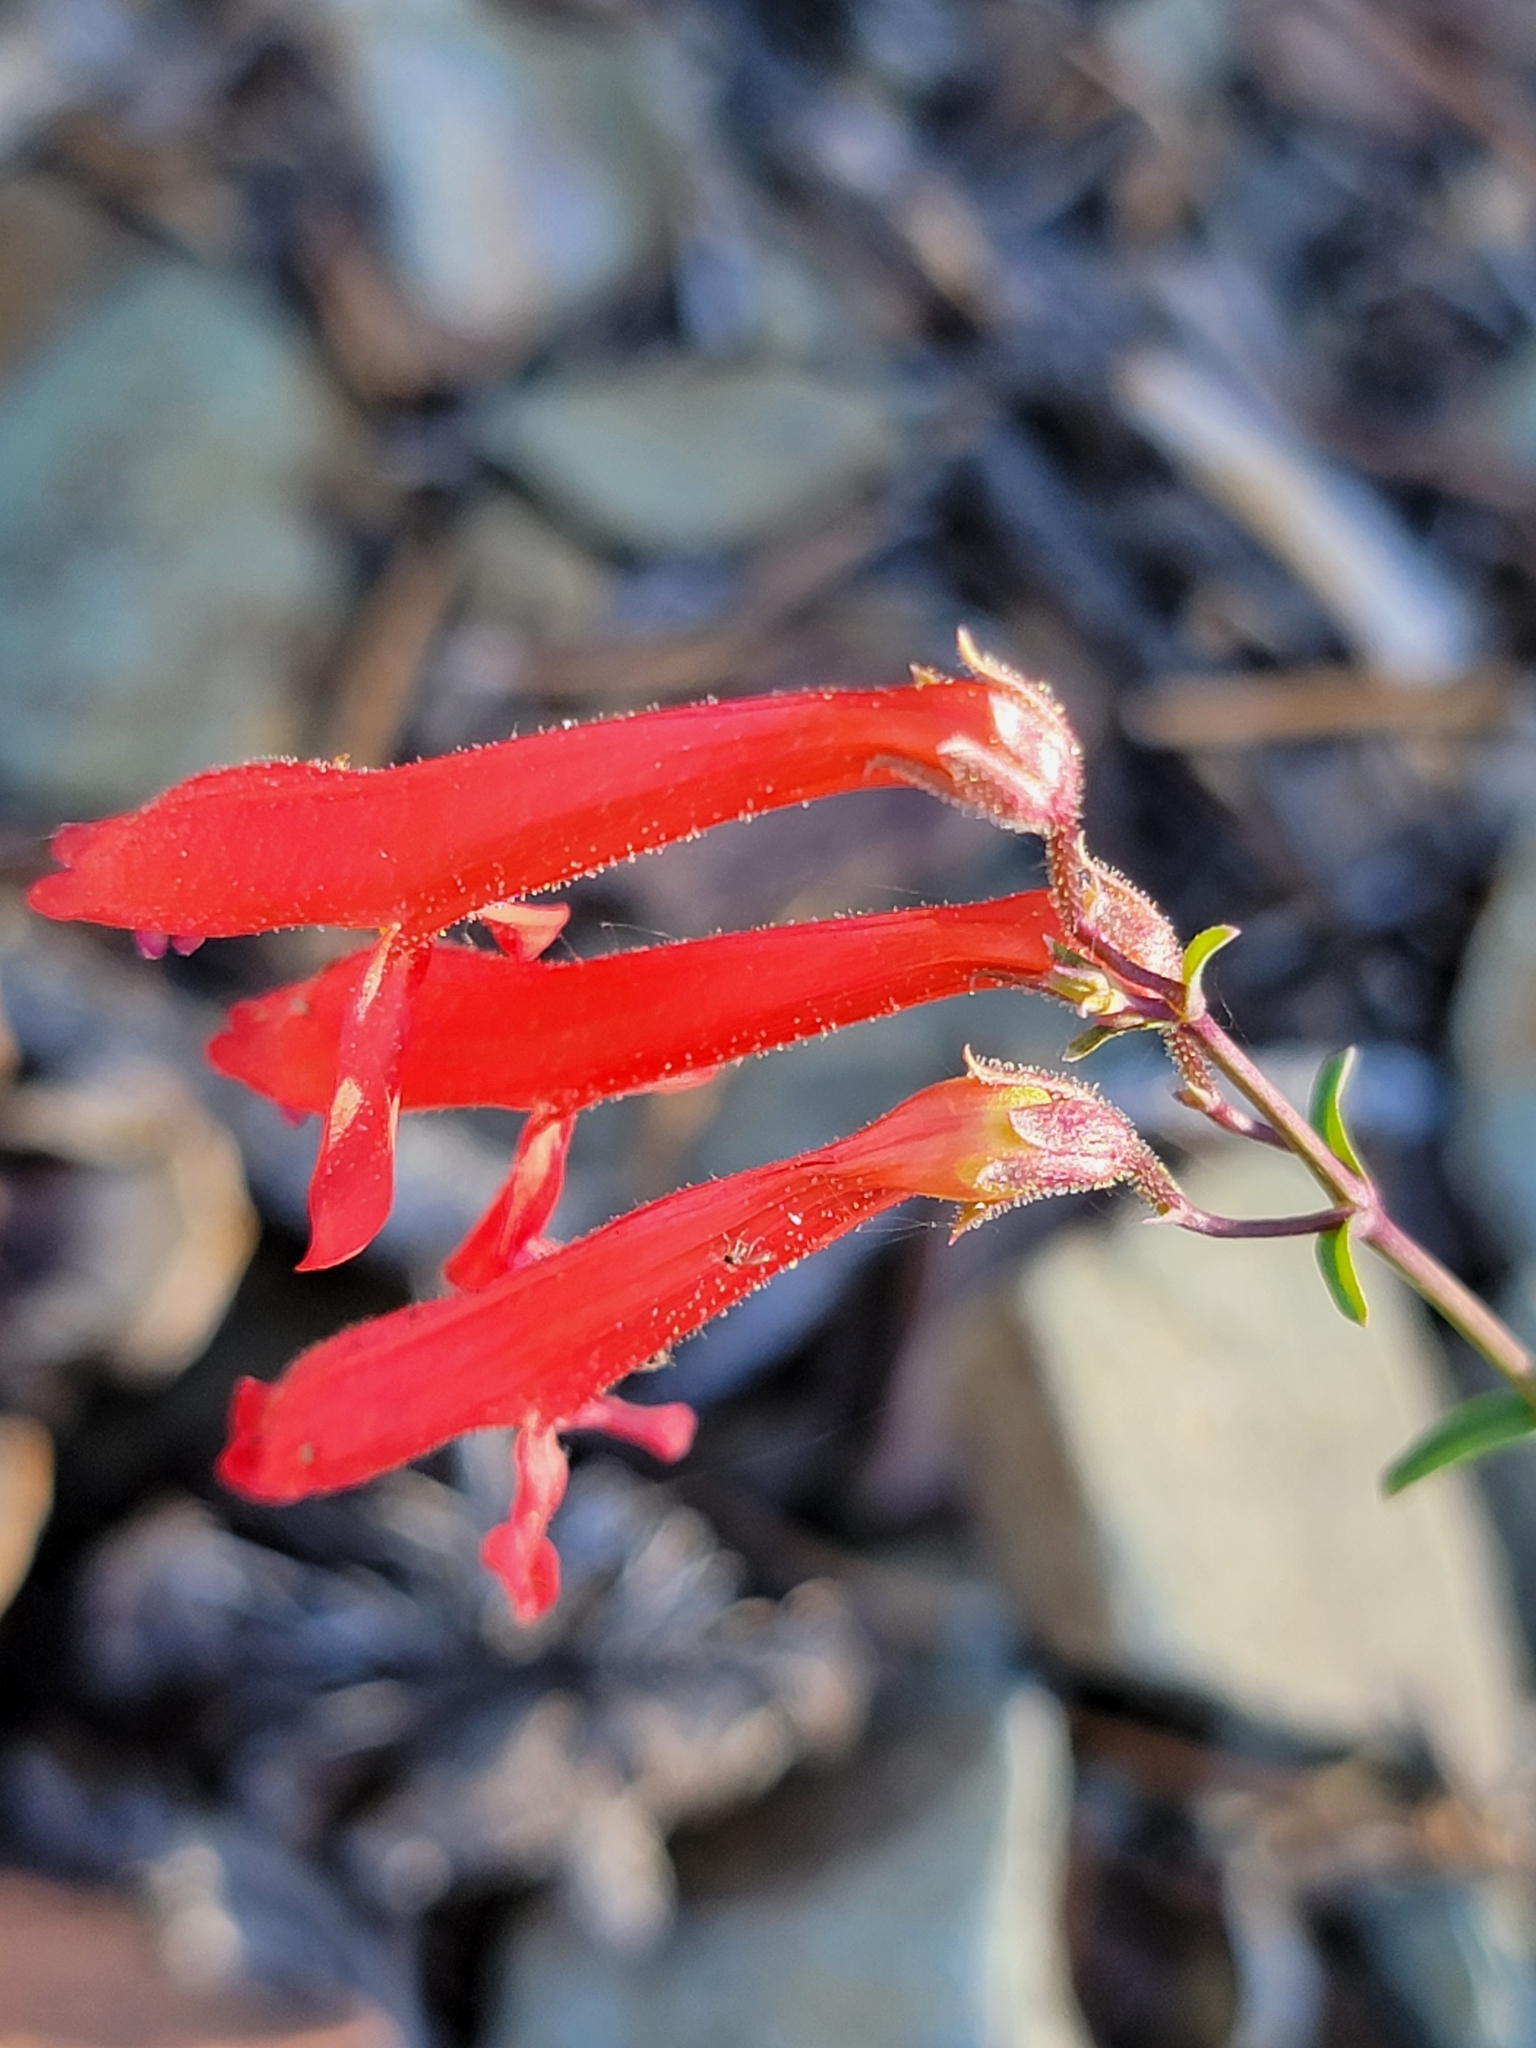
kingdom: Plantae
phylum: Tracheophyta
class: Magnoliopsida
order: Lamiales
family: Plantaginaceae
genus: Penstemon
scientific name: Penstemon rostriflorus
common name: Bridges's penstemon
